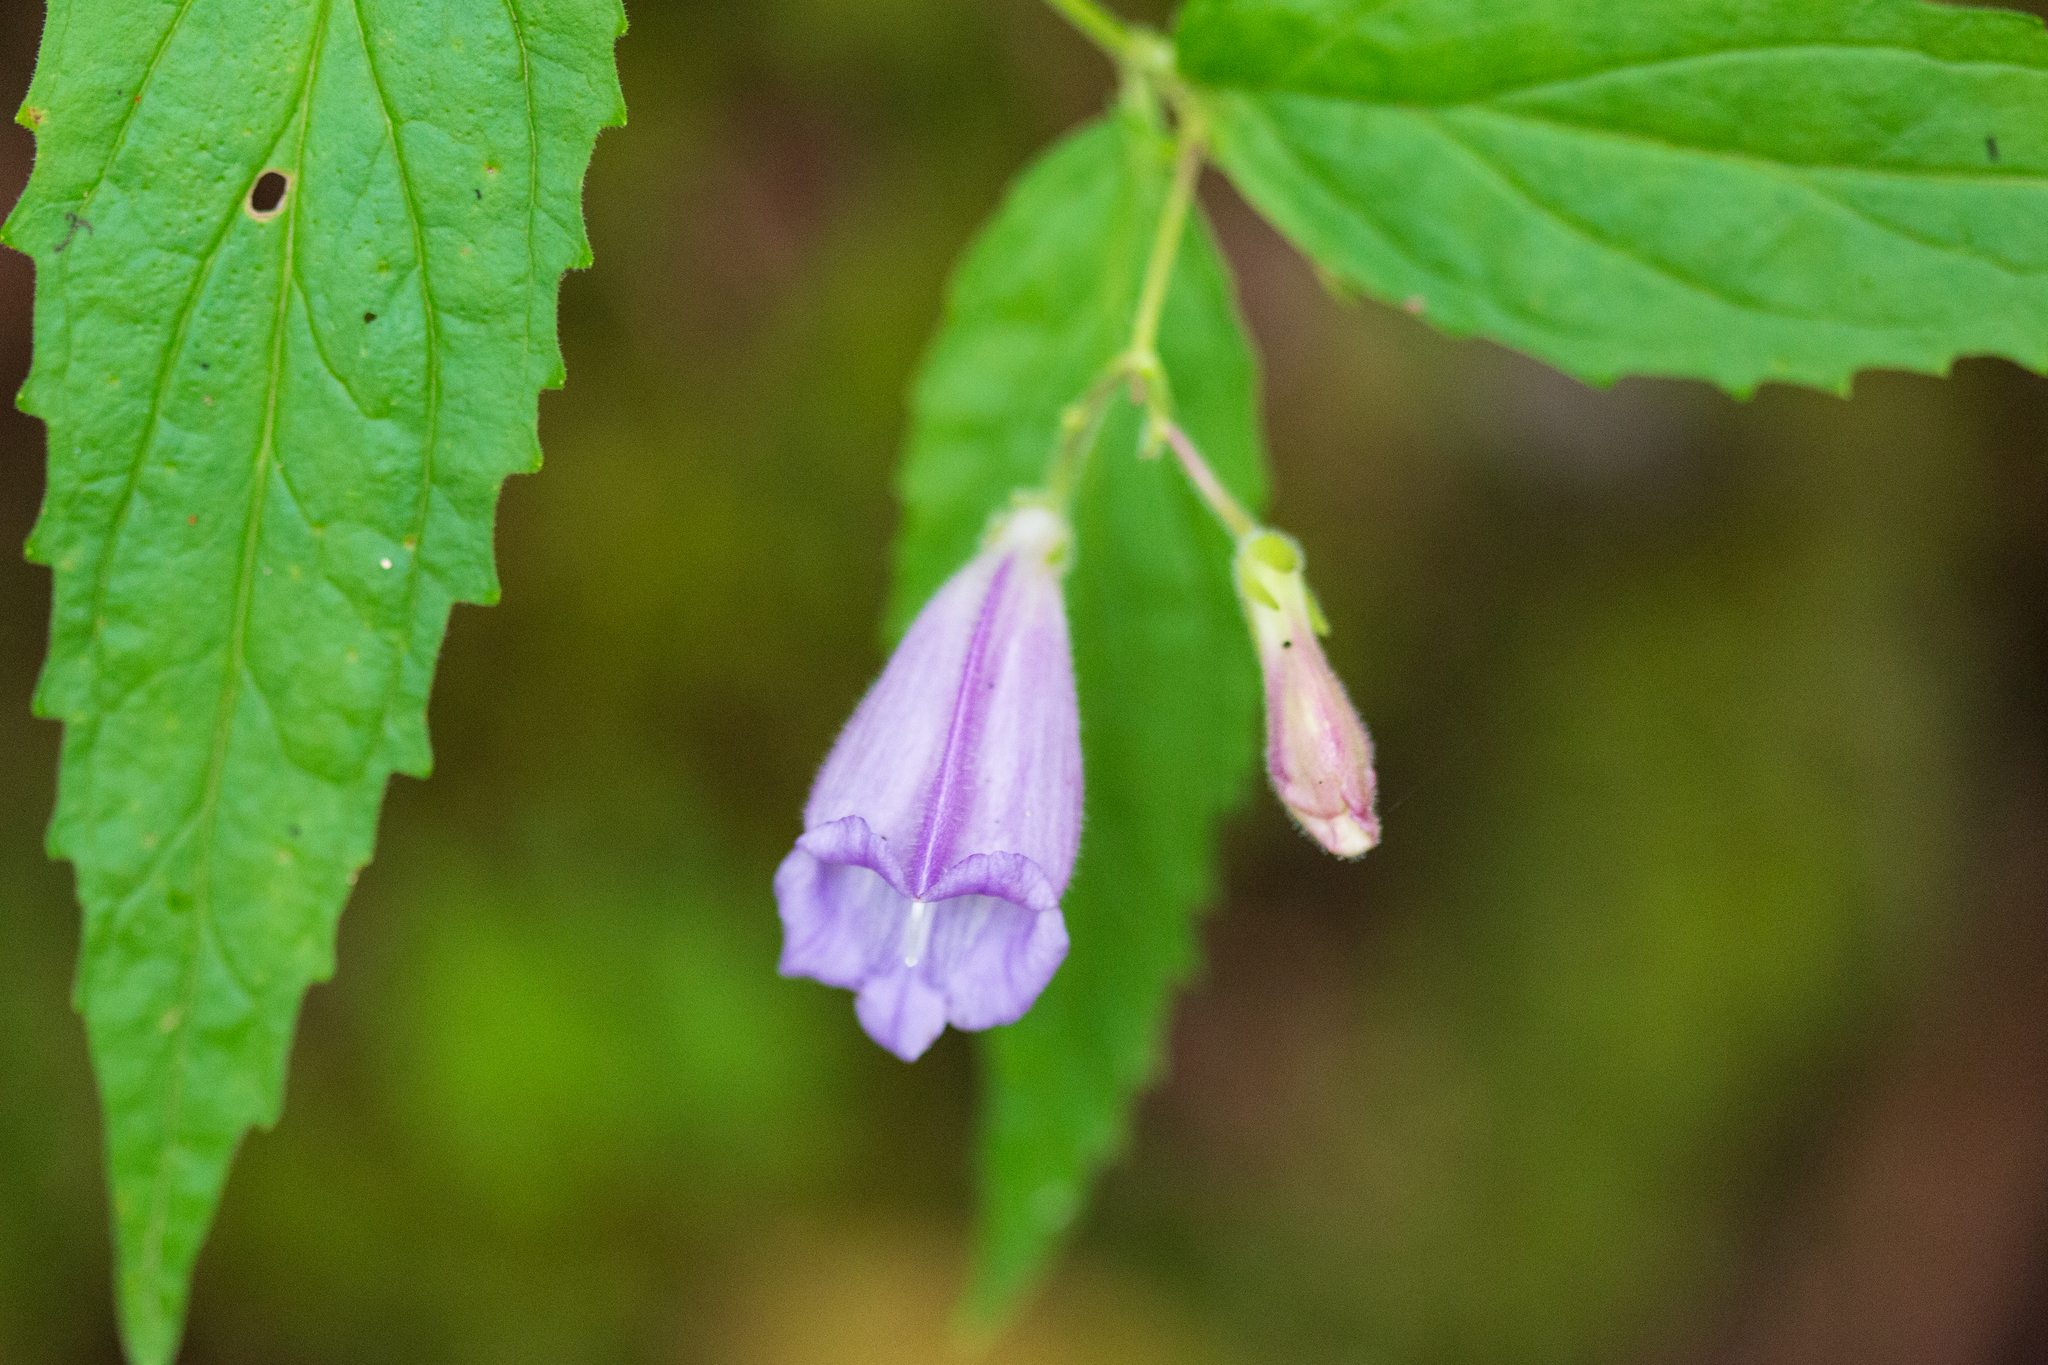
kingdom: Plantae
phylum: Tracheophyta
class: Magnoliopsida
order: Lamiales
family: Plantaginaceae
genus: Nothochelone
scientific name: Nothochelone nemorosa
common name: Woodland beardtongue
